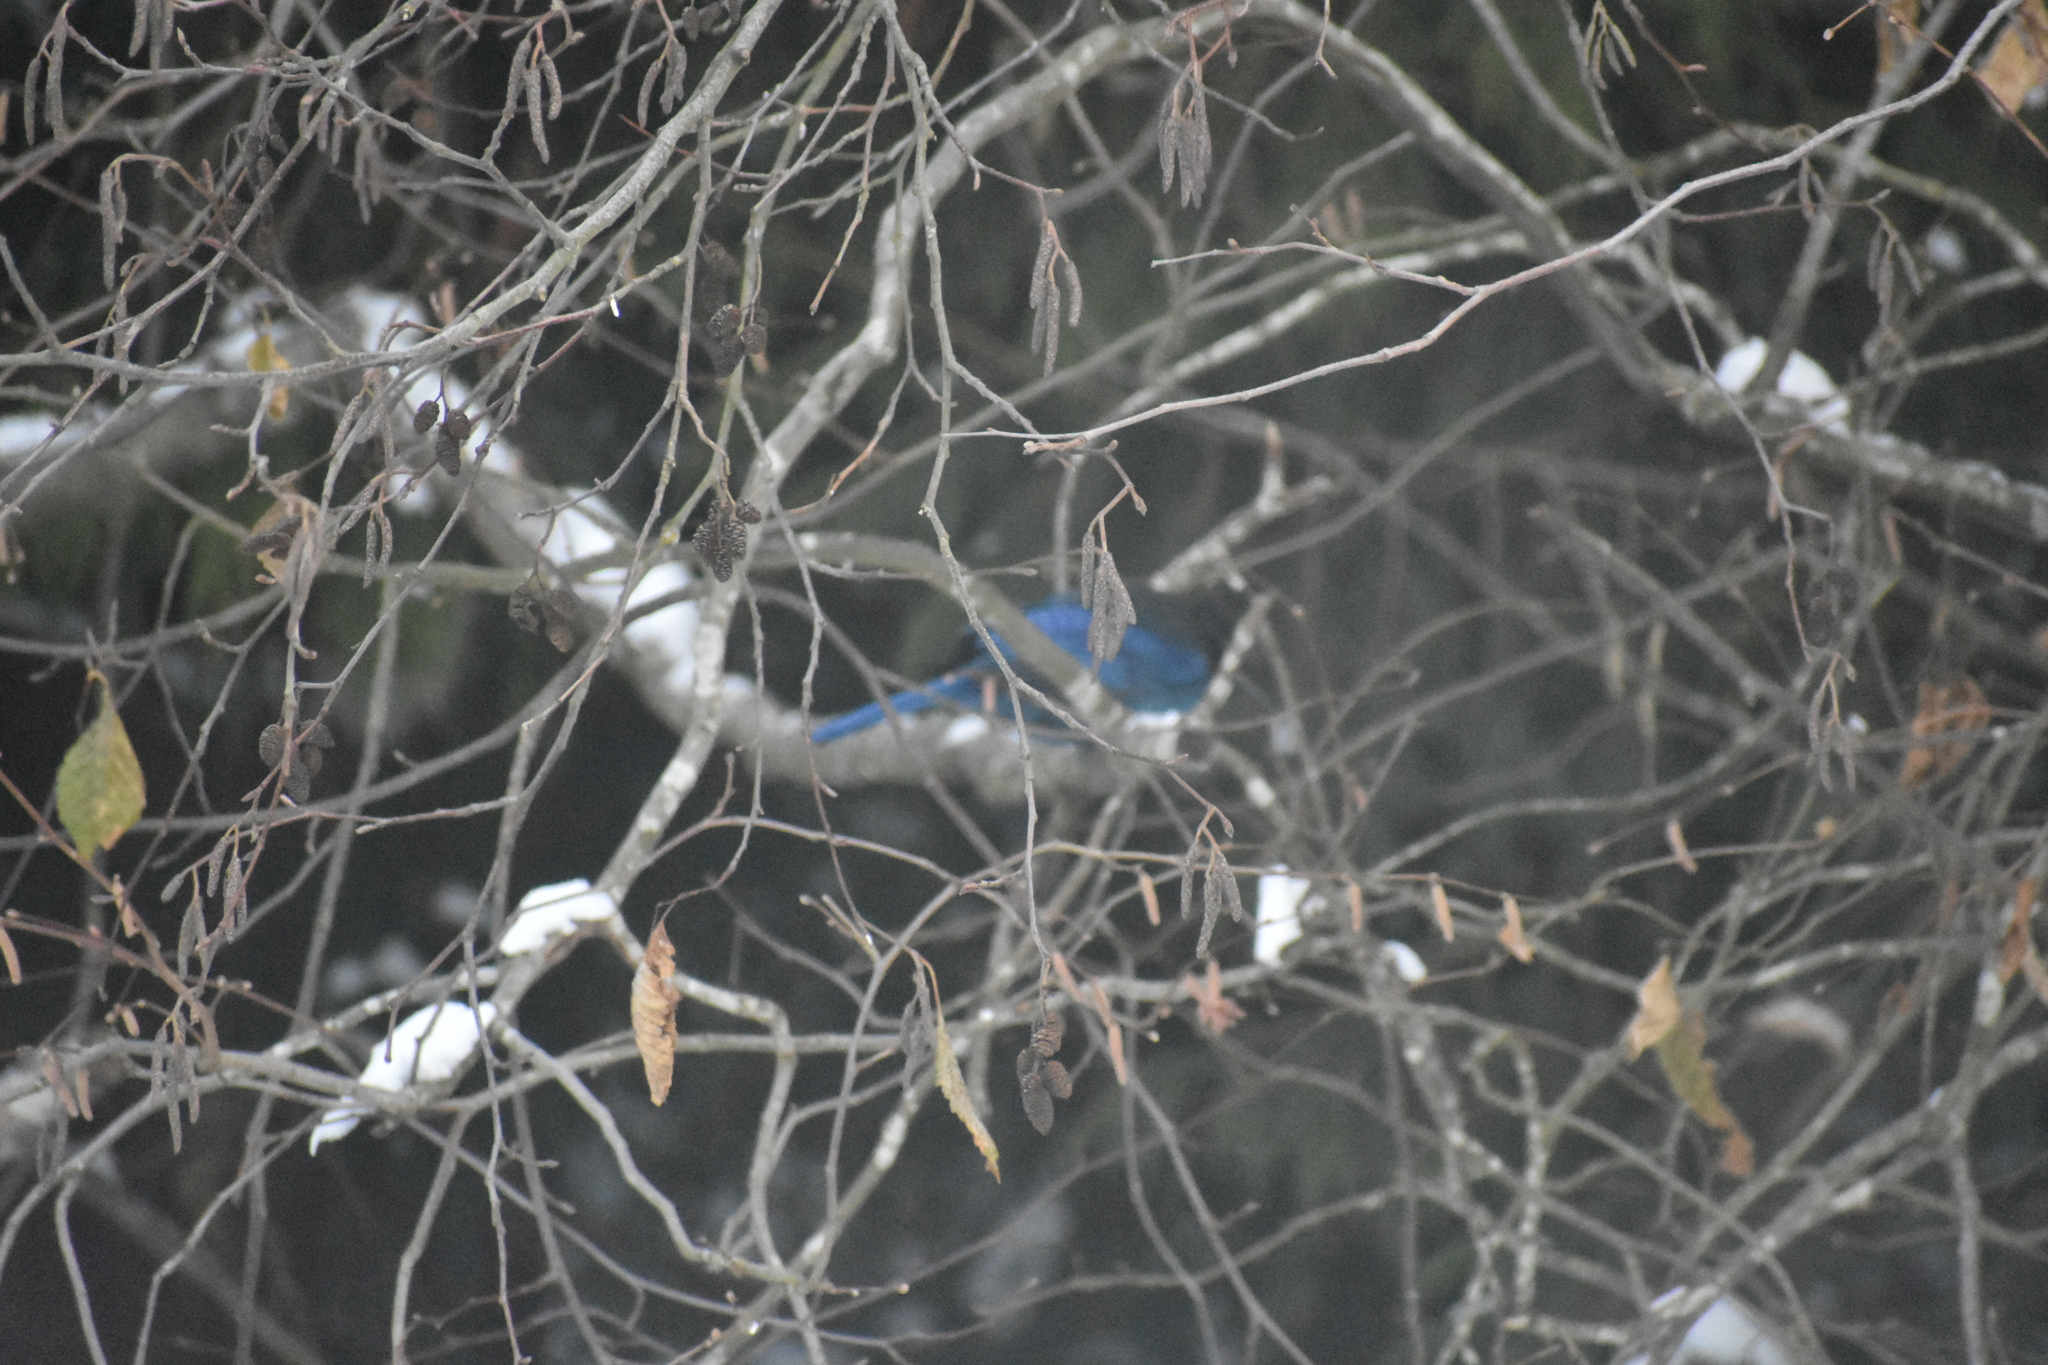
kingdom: Animalia
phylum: Chordata
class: Aves
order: Passeriformes
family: Corvidae
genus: Cyanocitta
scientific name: Cyanocitta stelleri
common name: Steller's jay
